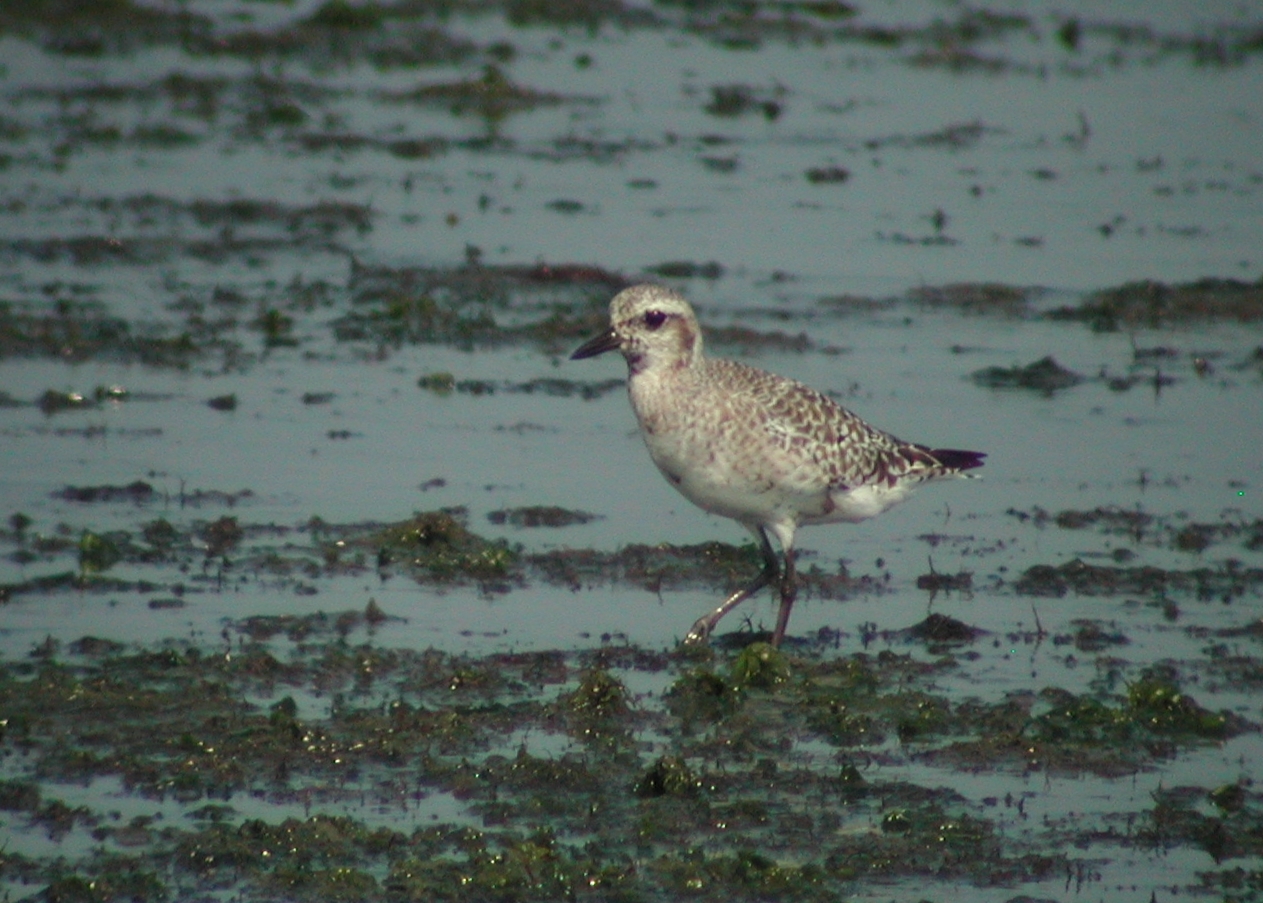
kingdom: Animalia
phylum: Chordata
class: Aves
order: Charadriiformes
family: Charadriidae
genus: Pluvialis
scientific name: Pluvialis squatarola
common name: Grey plover
